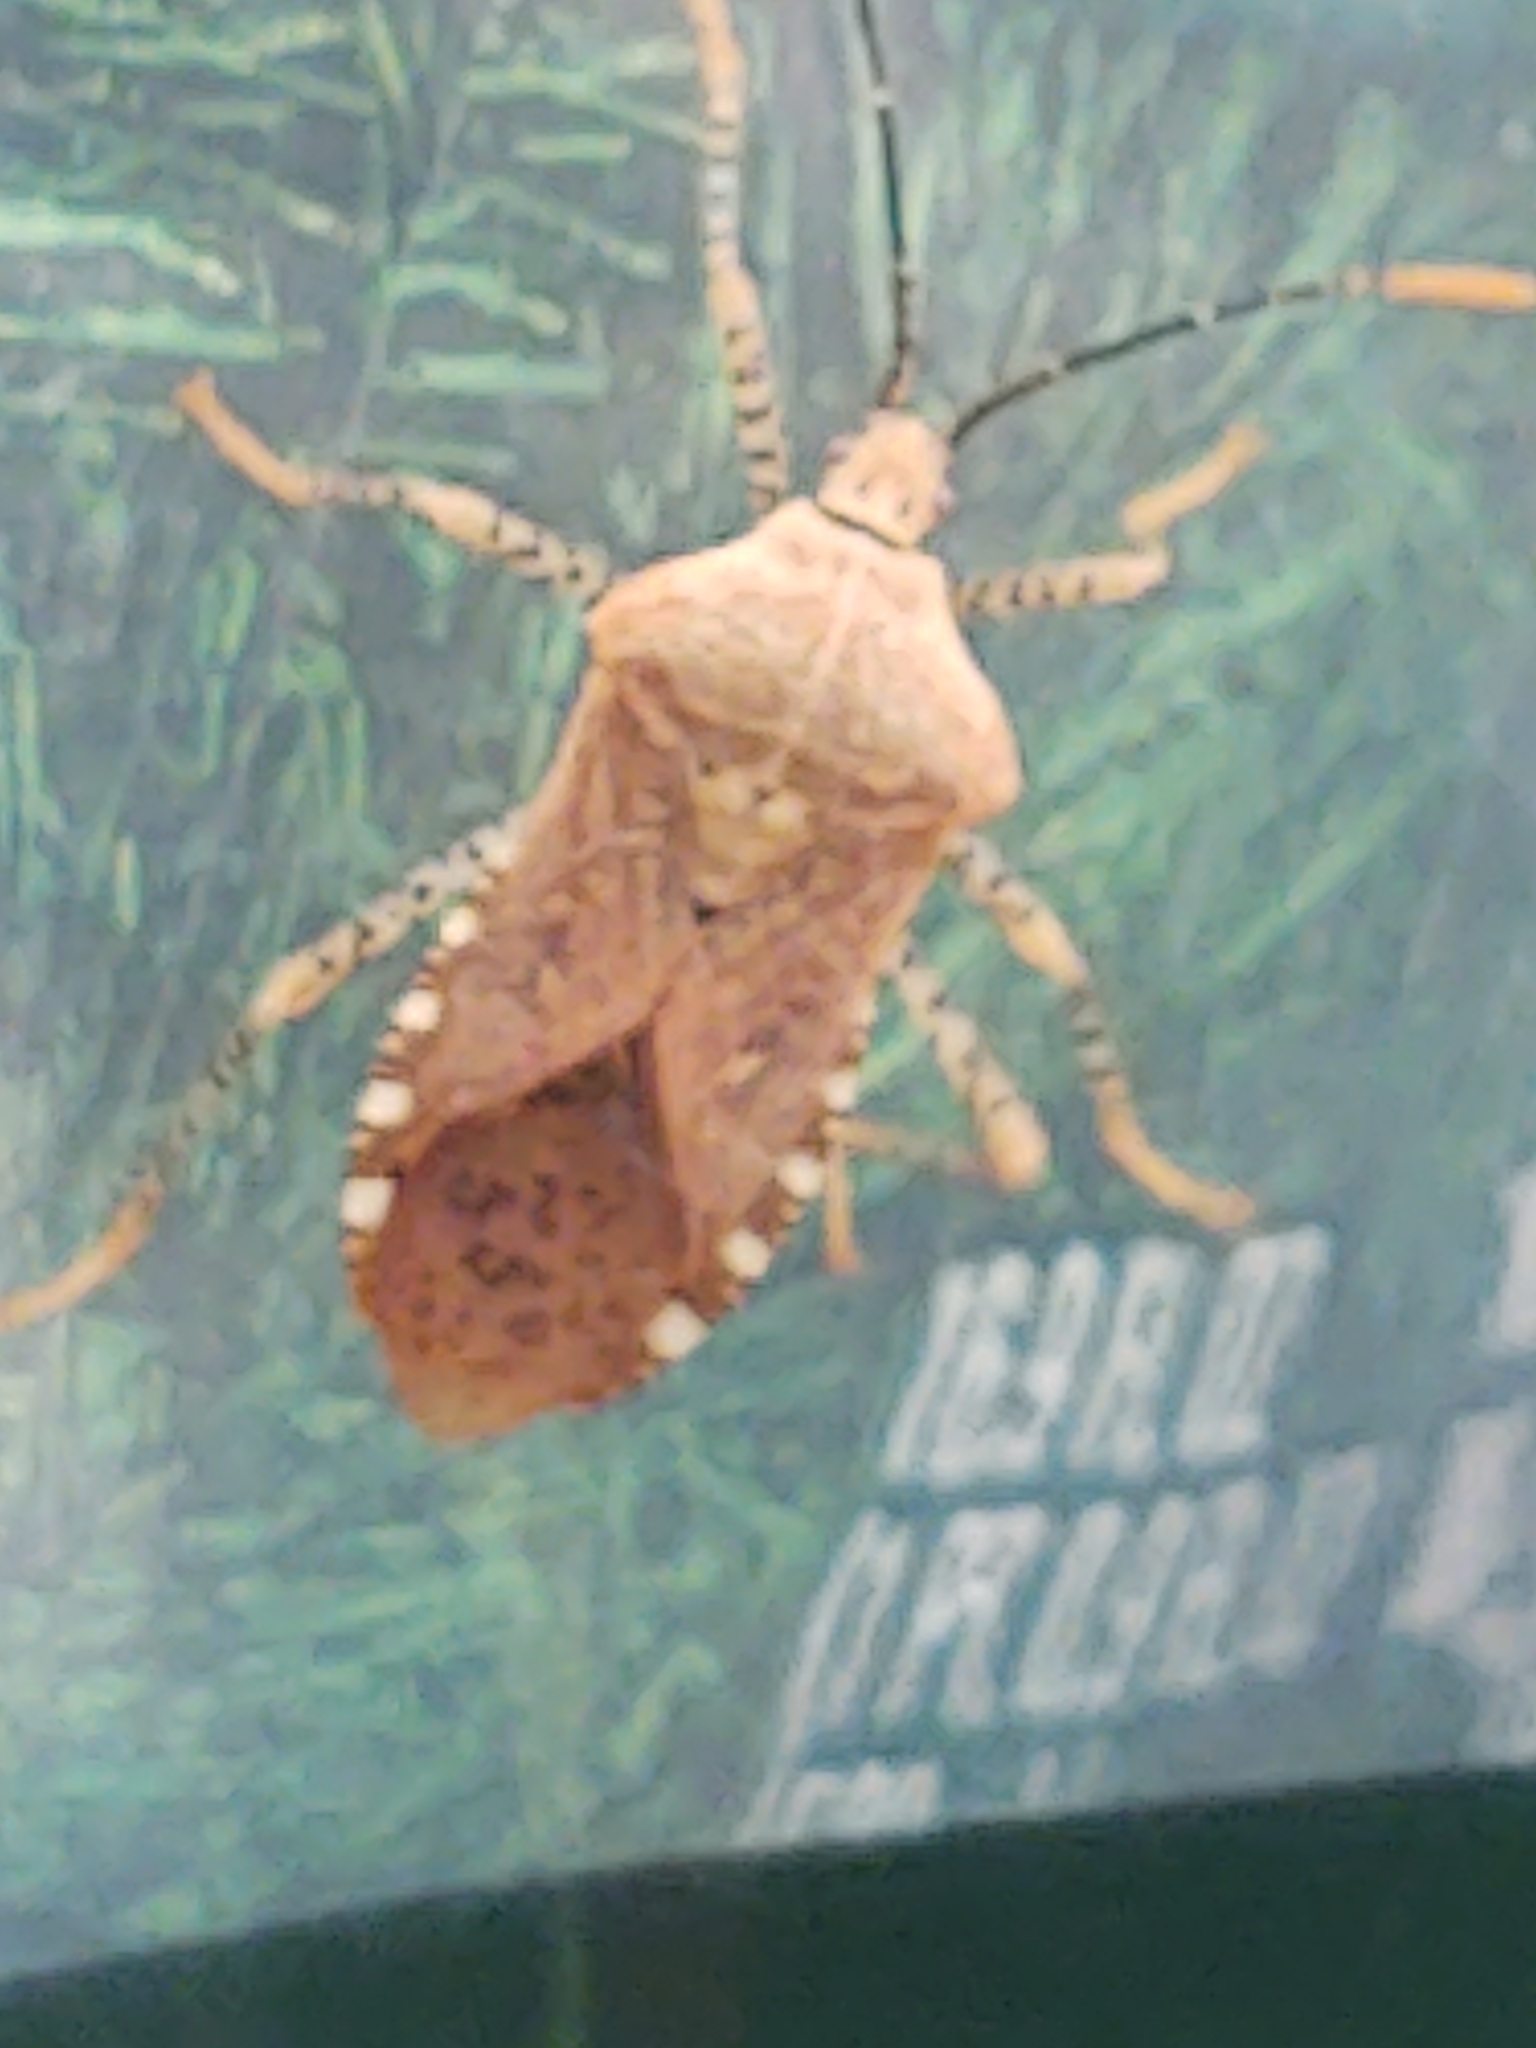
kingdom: Animalia
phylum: Arthropoda
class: Insecta
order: Hemiptera
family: Coreidae
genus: Anasa
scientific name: Anasa repetita
